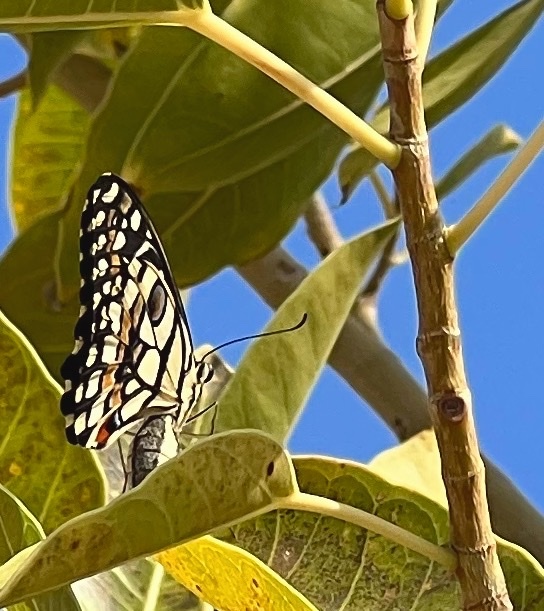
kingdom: Animalia
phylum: Arthropoda
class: Insecta
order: Lepidoptera
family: Papilionidae
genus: Papilio
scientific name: Papilio demoleus
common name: Lime butterfly
